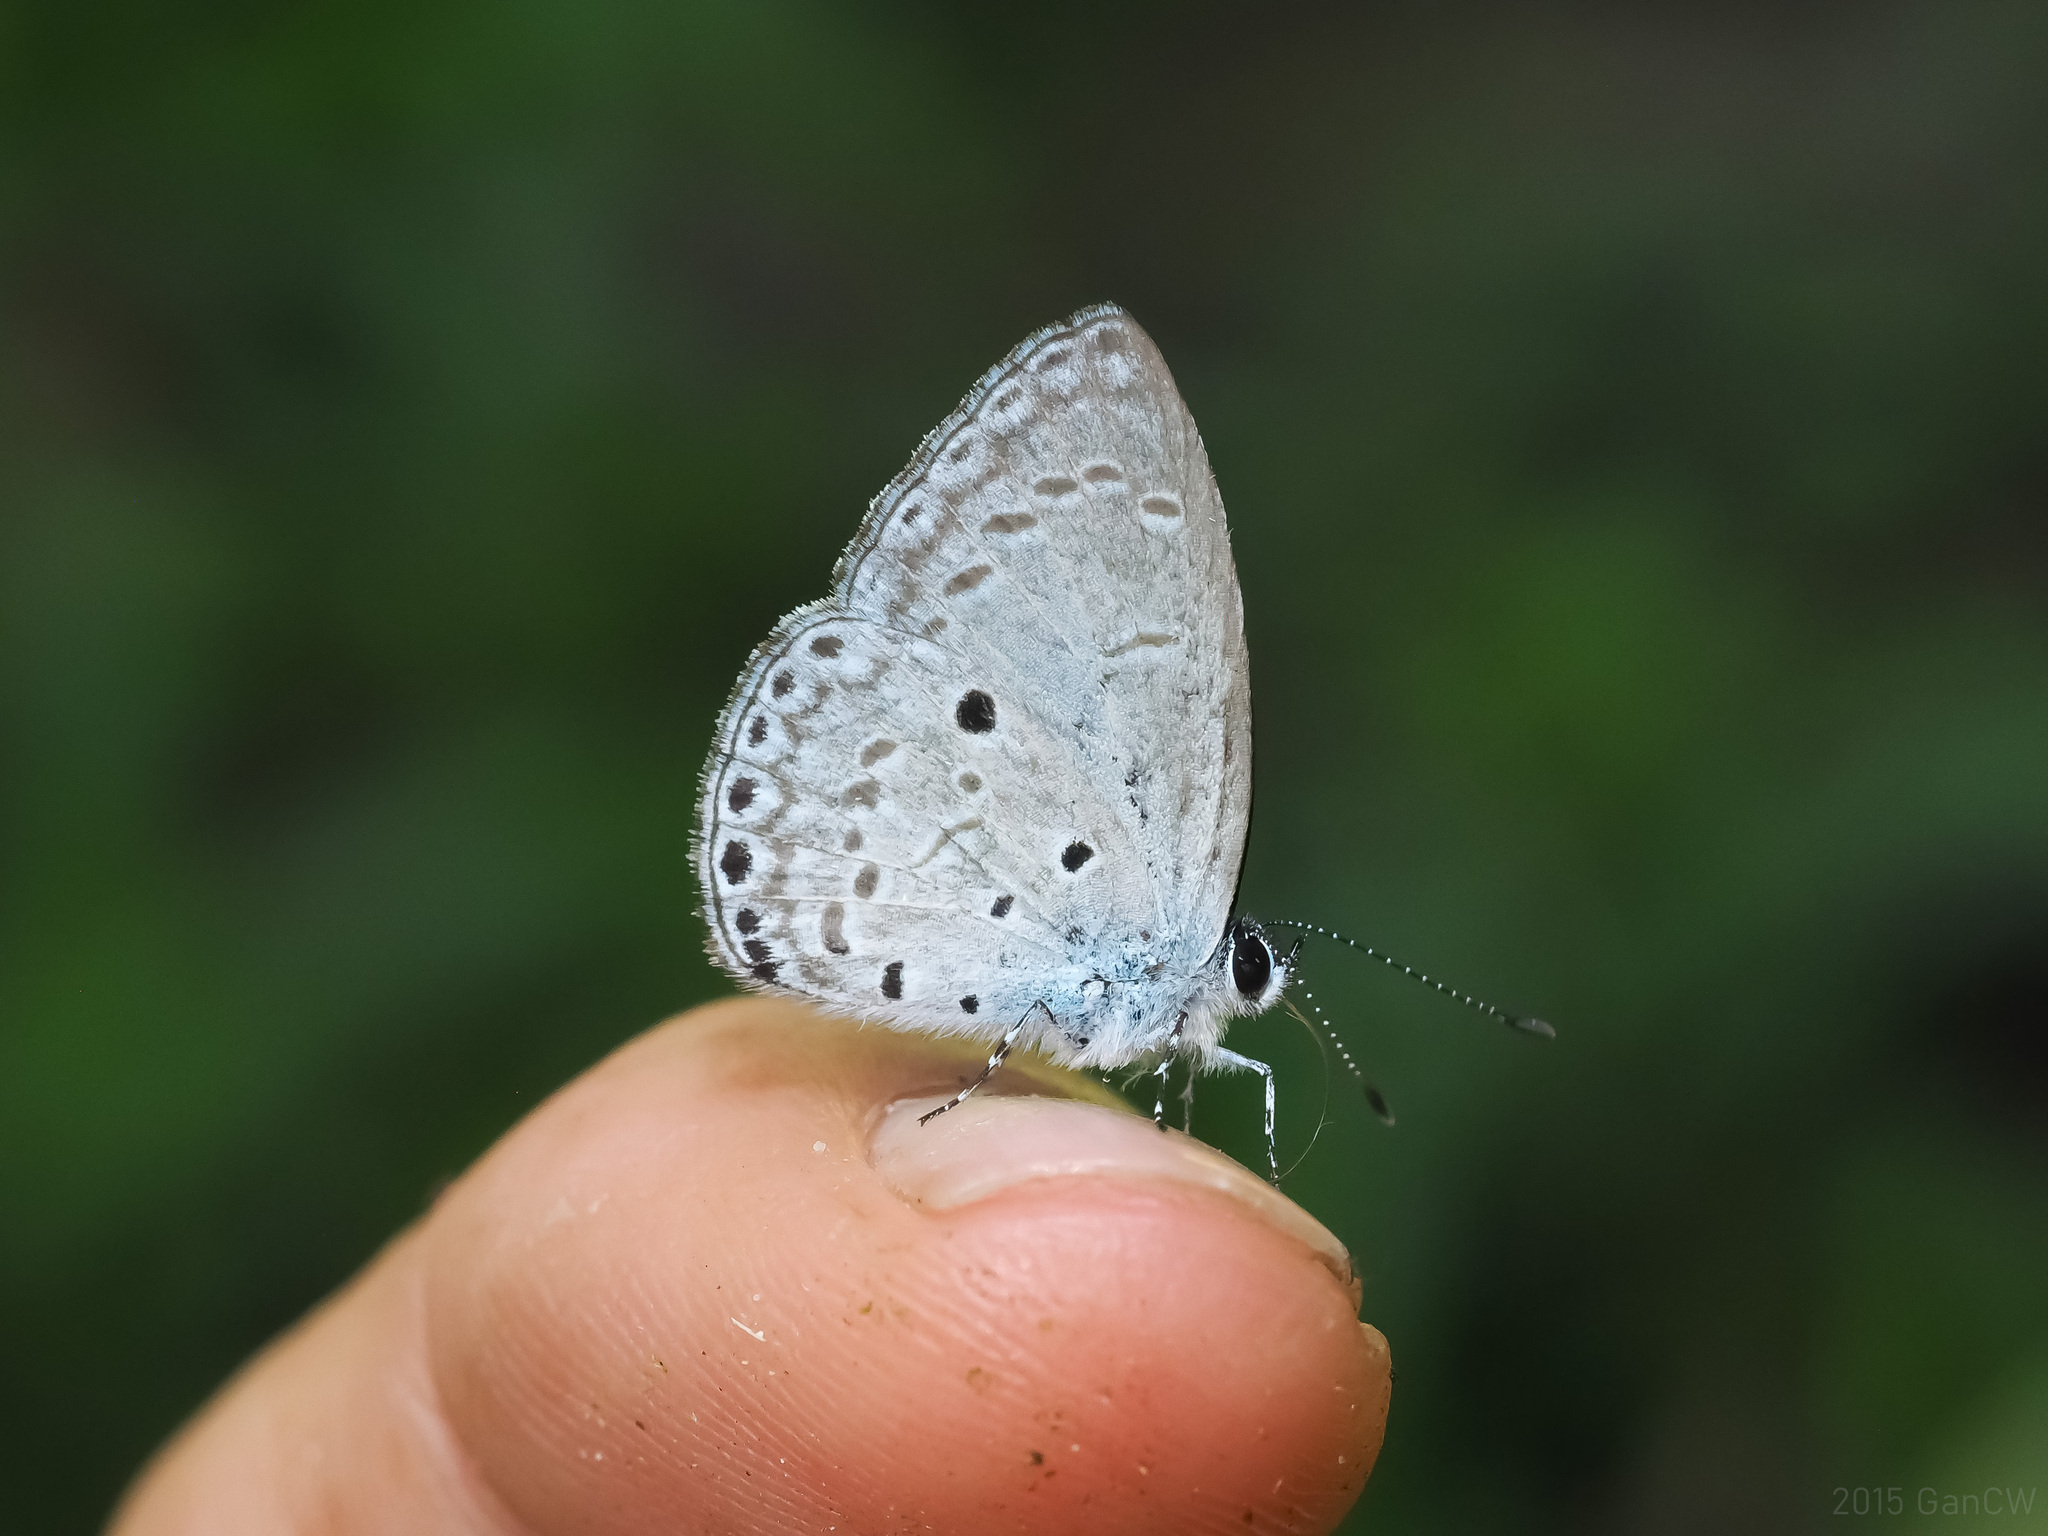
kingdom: Animalia
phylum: Arthropoda
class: Insecta
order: Lepidoptera
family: Lycaenidae
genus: Udara
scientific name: Udara
